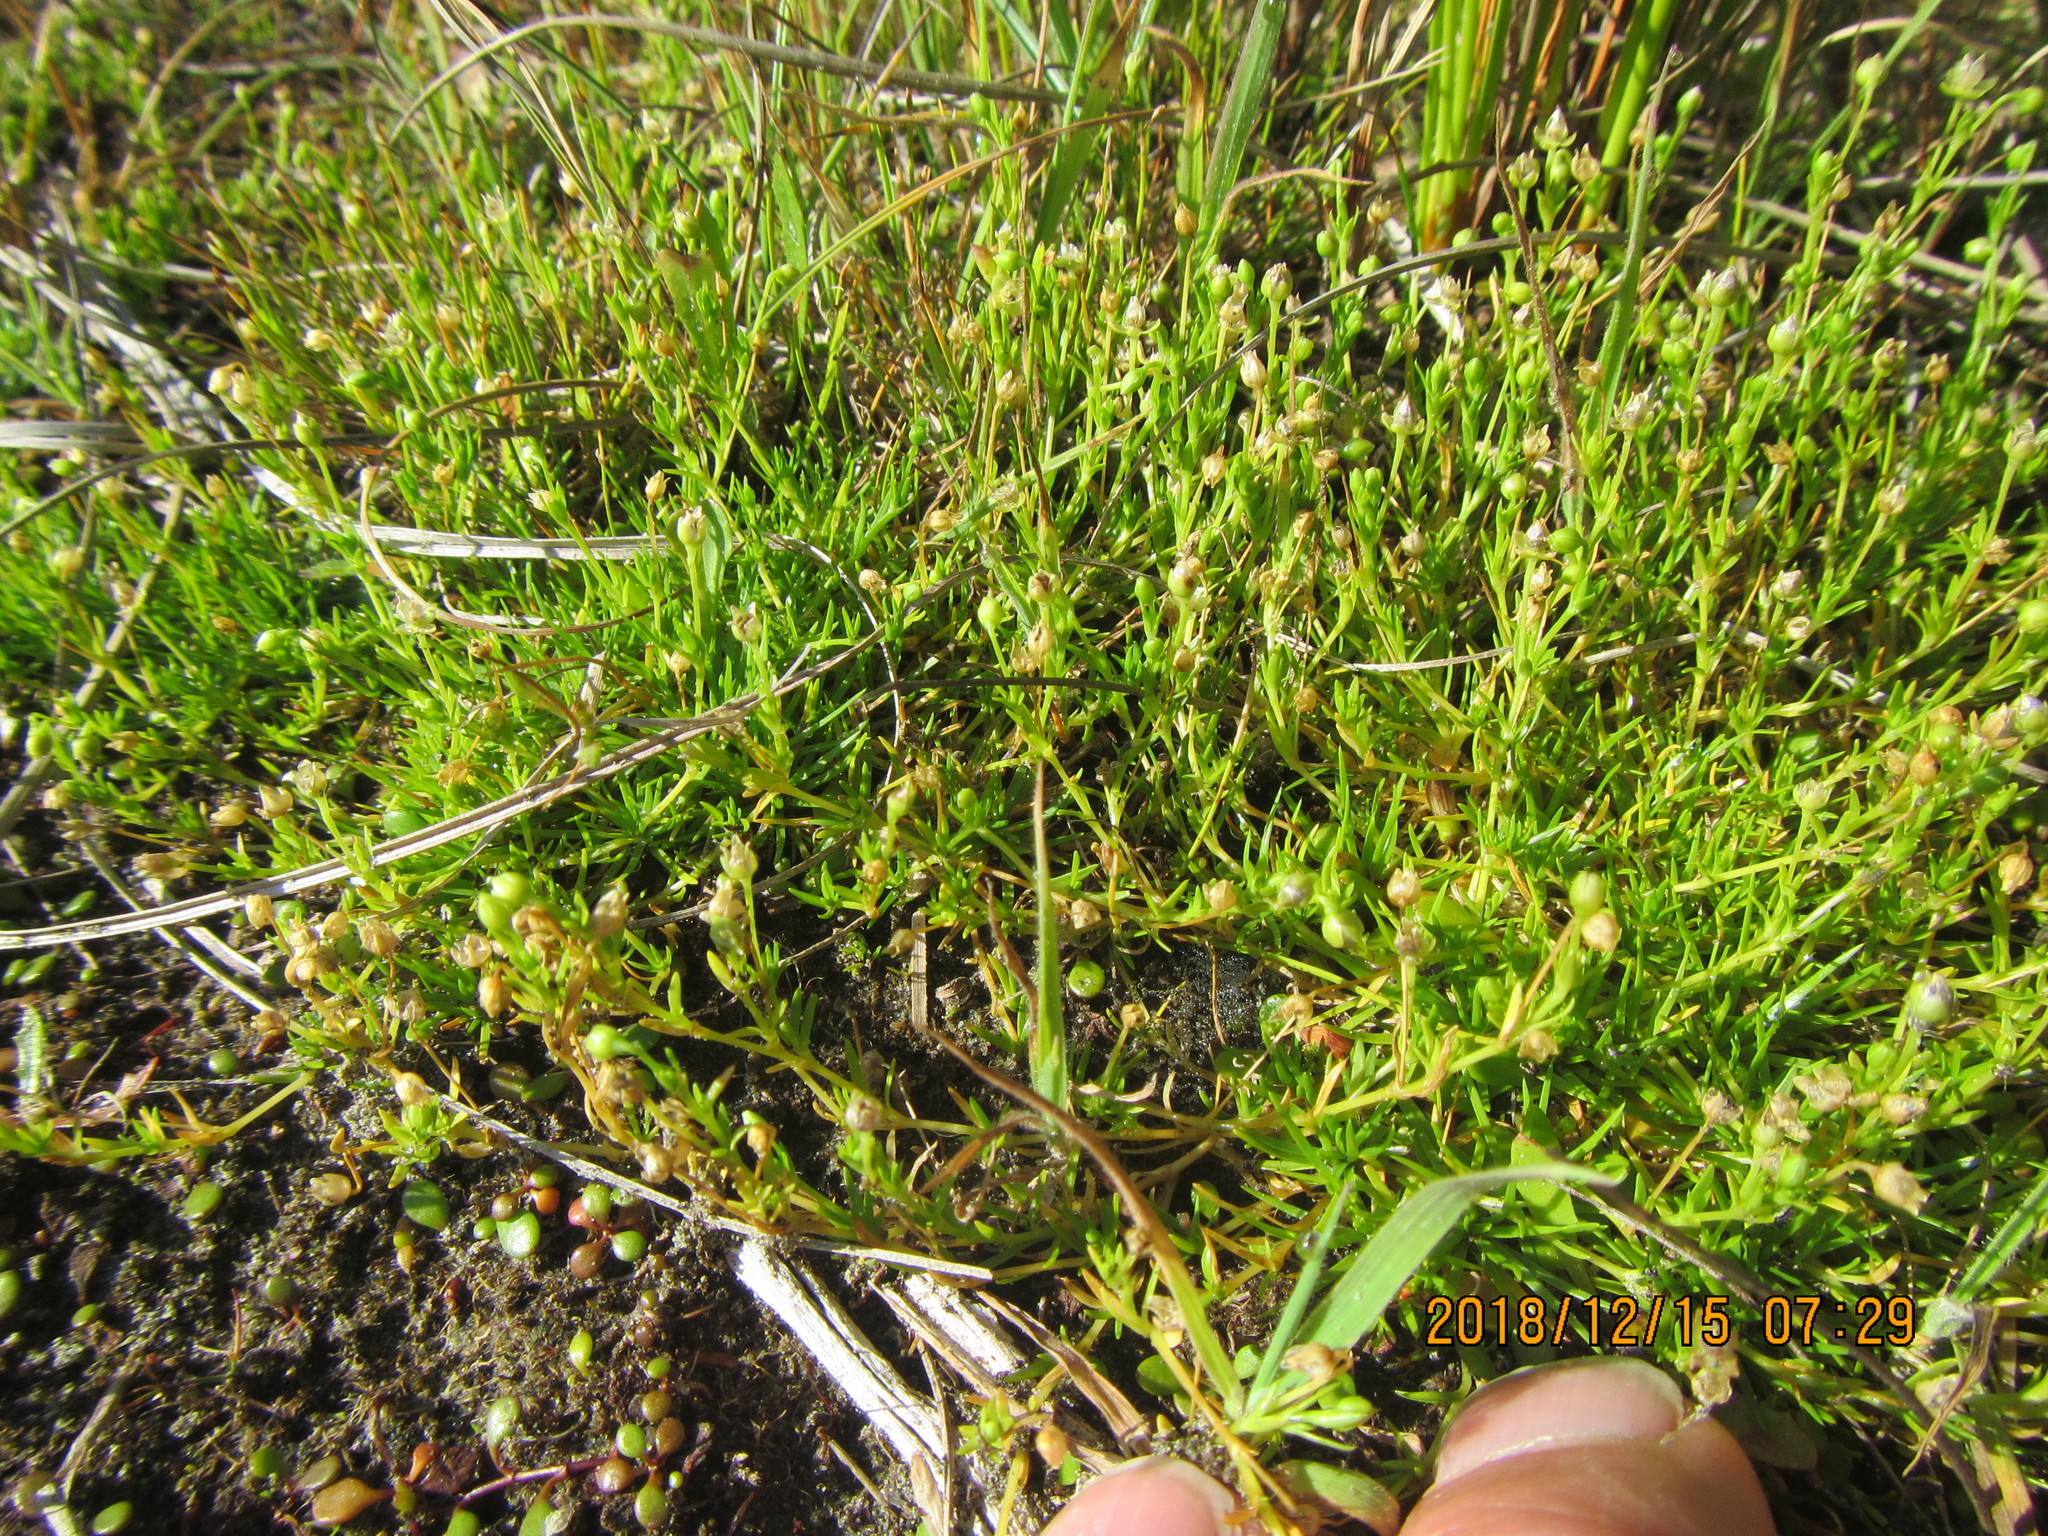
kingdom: Plantae
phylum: Tracheophyta
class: Magnoliopsida
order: Caryophyllales
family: Caryophyllaceae
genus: Sagina
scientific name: Sagina procumbens
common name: Procumbent pearlwort
